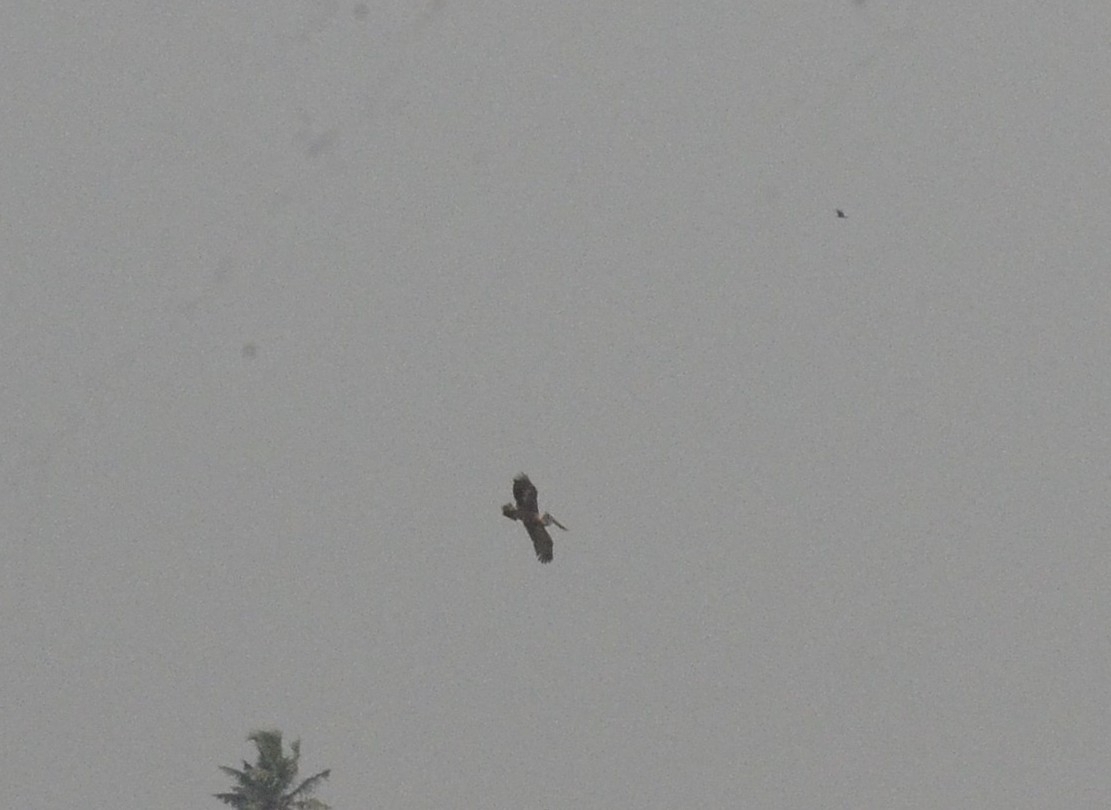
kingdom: Animalia
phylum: Chordata
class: Aves
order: Pelecaniformes
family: Pelecanidae
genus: Pelecanus
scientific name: Pelecanus philippensis
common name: Spot-billed pelican
